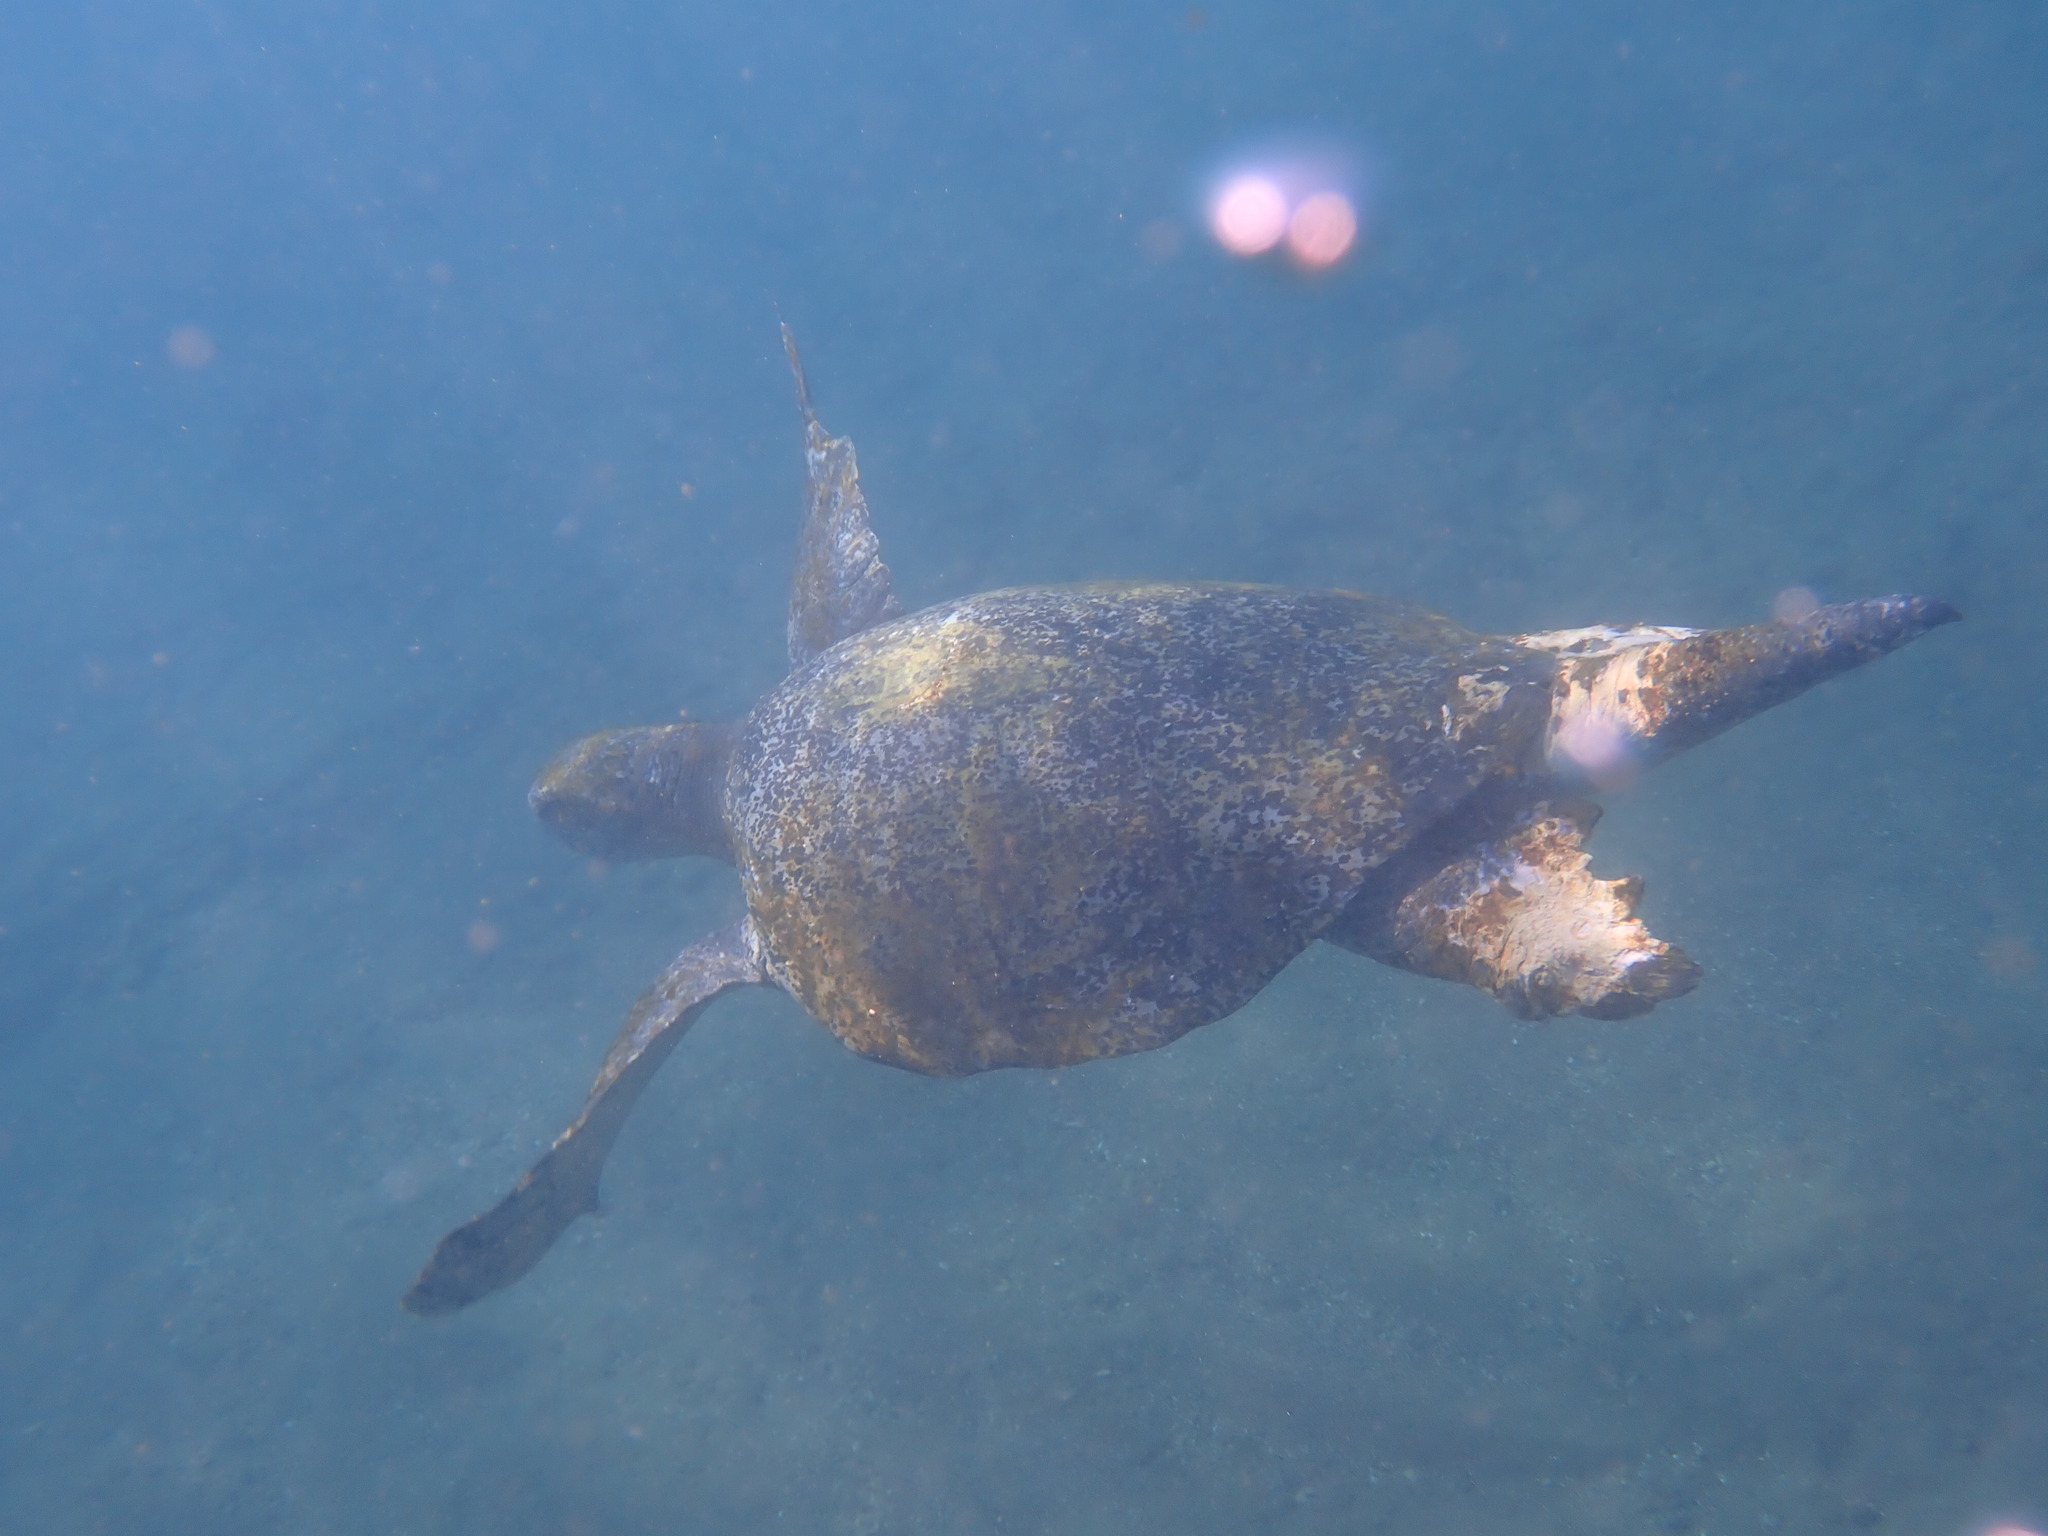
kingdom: Animalia
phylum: Chordata
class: Testudines
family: Cheloniidae
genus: Chelonia
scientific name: Chelonia mydas
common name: Green turtle
